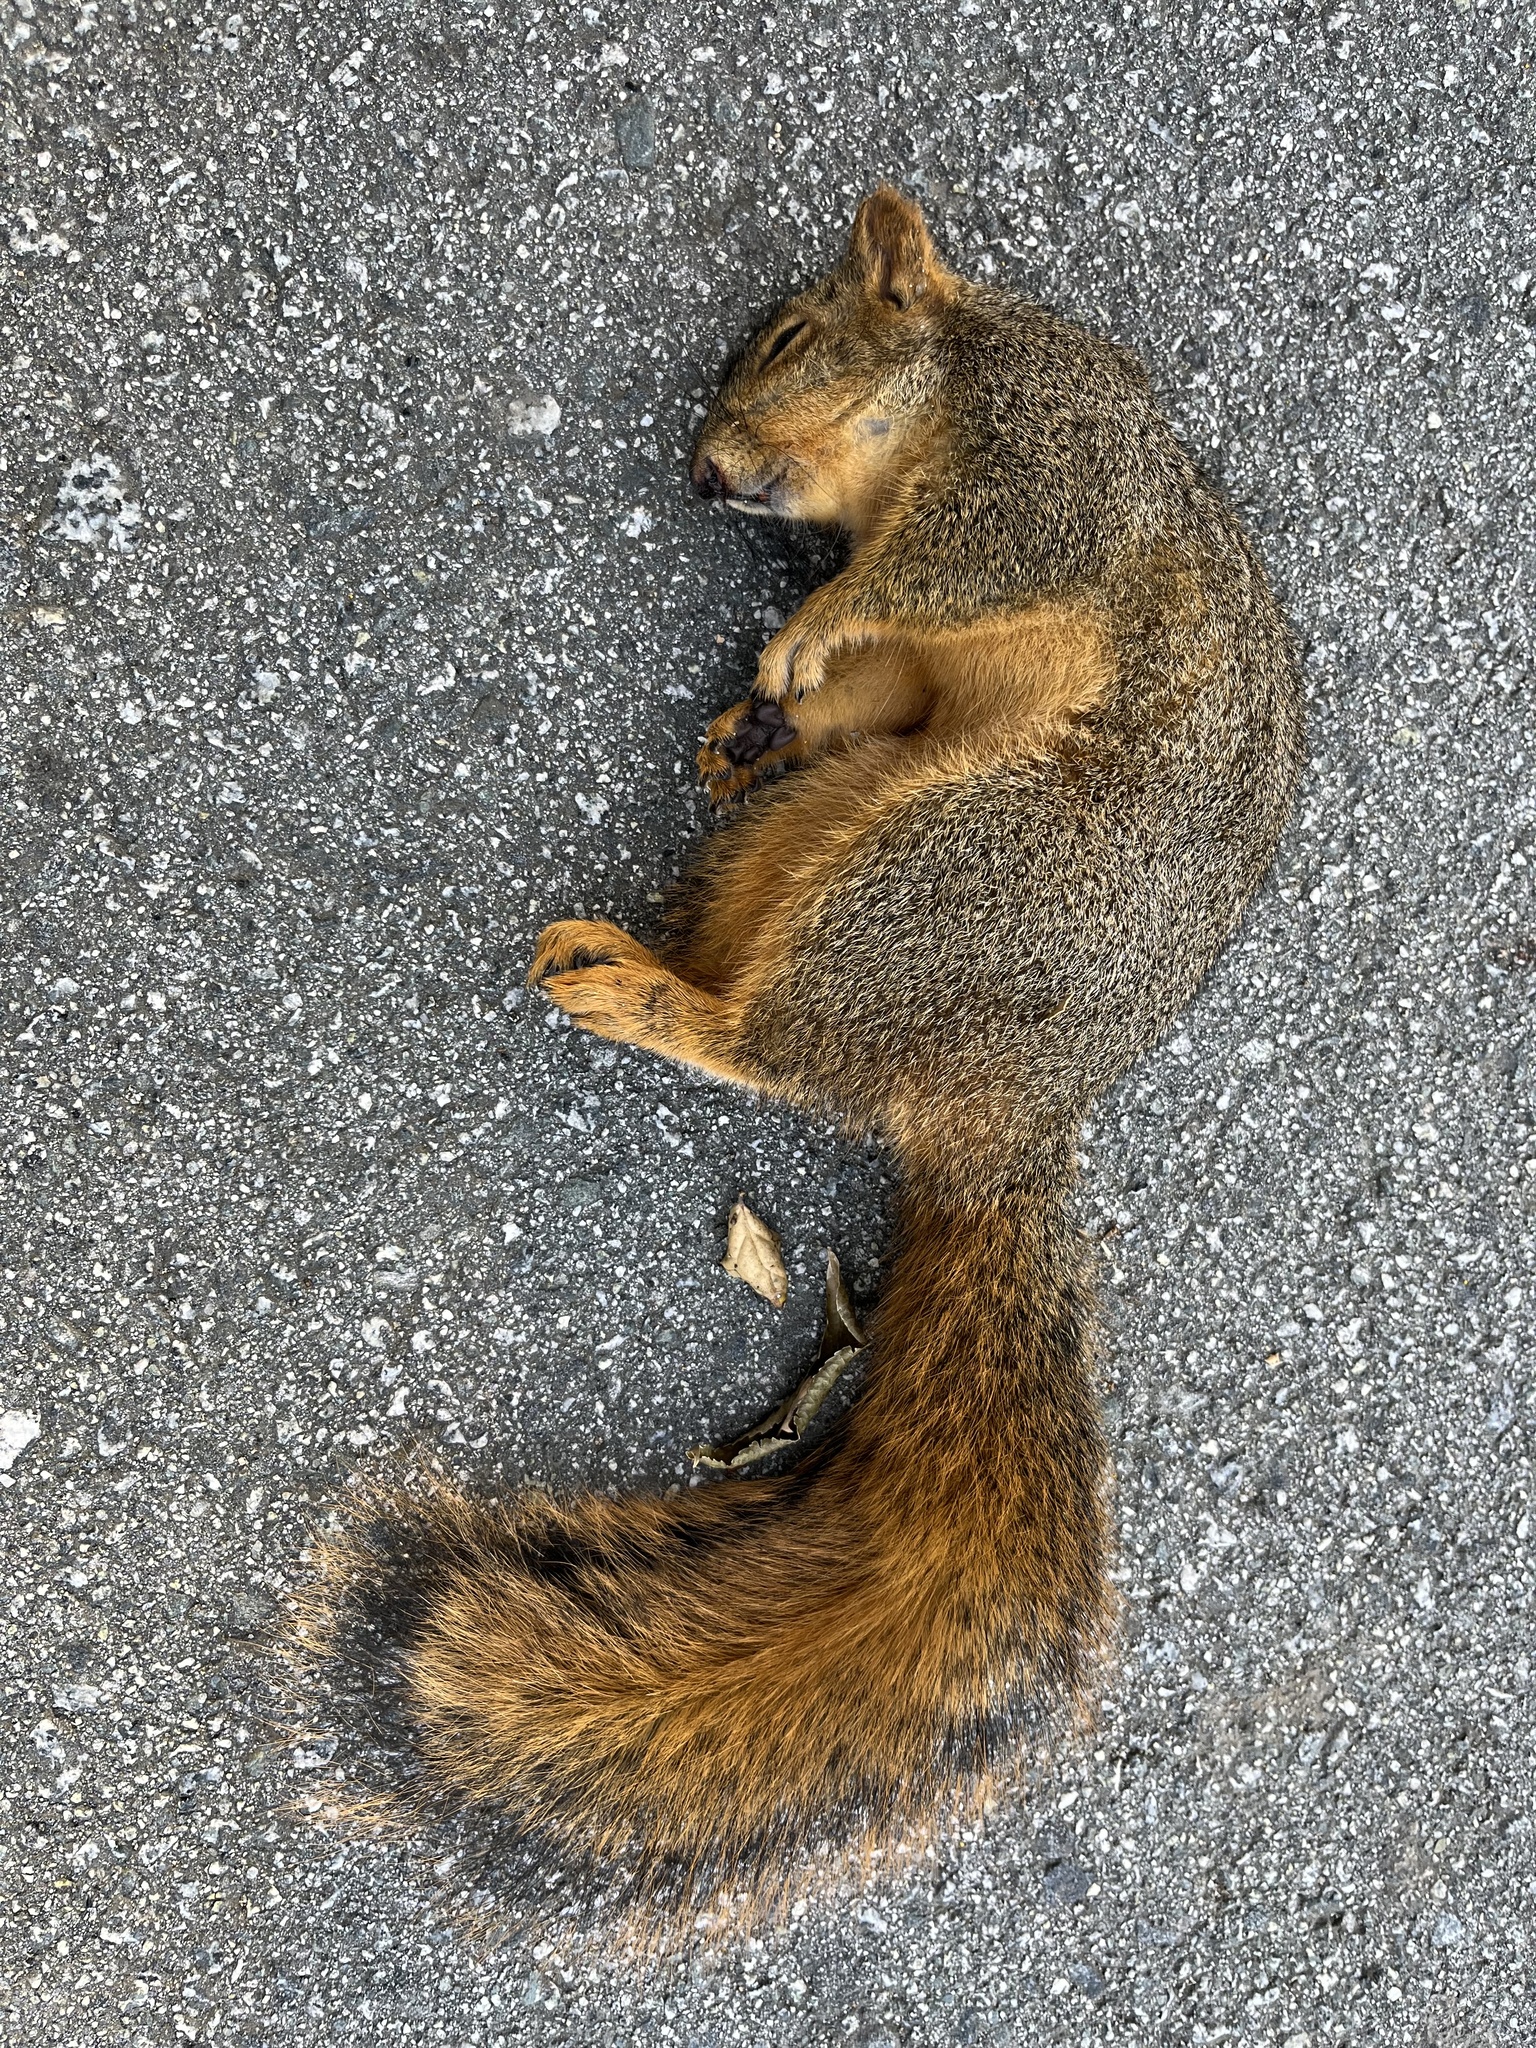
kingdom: Animalia
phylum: Chordata
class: Mammalia
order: Rodentia
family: Sciuridae
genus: Sciurus
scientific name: Sciurus niger
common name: Fox squirrel
